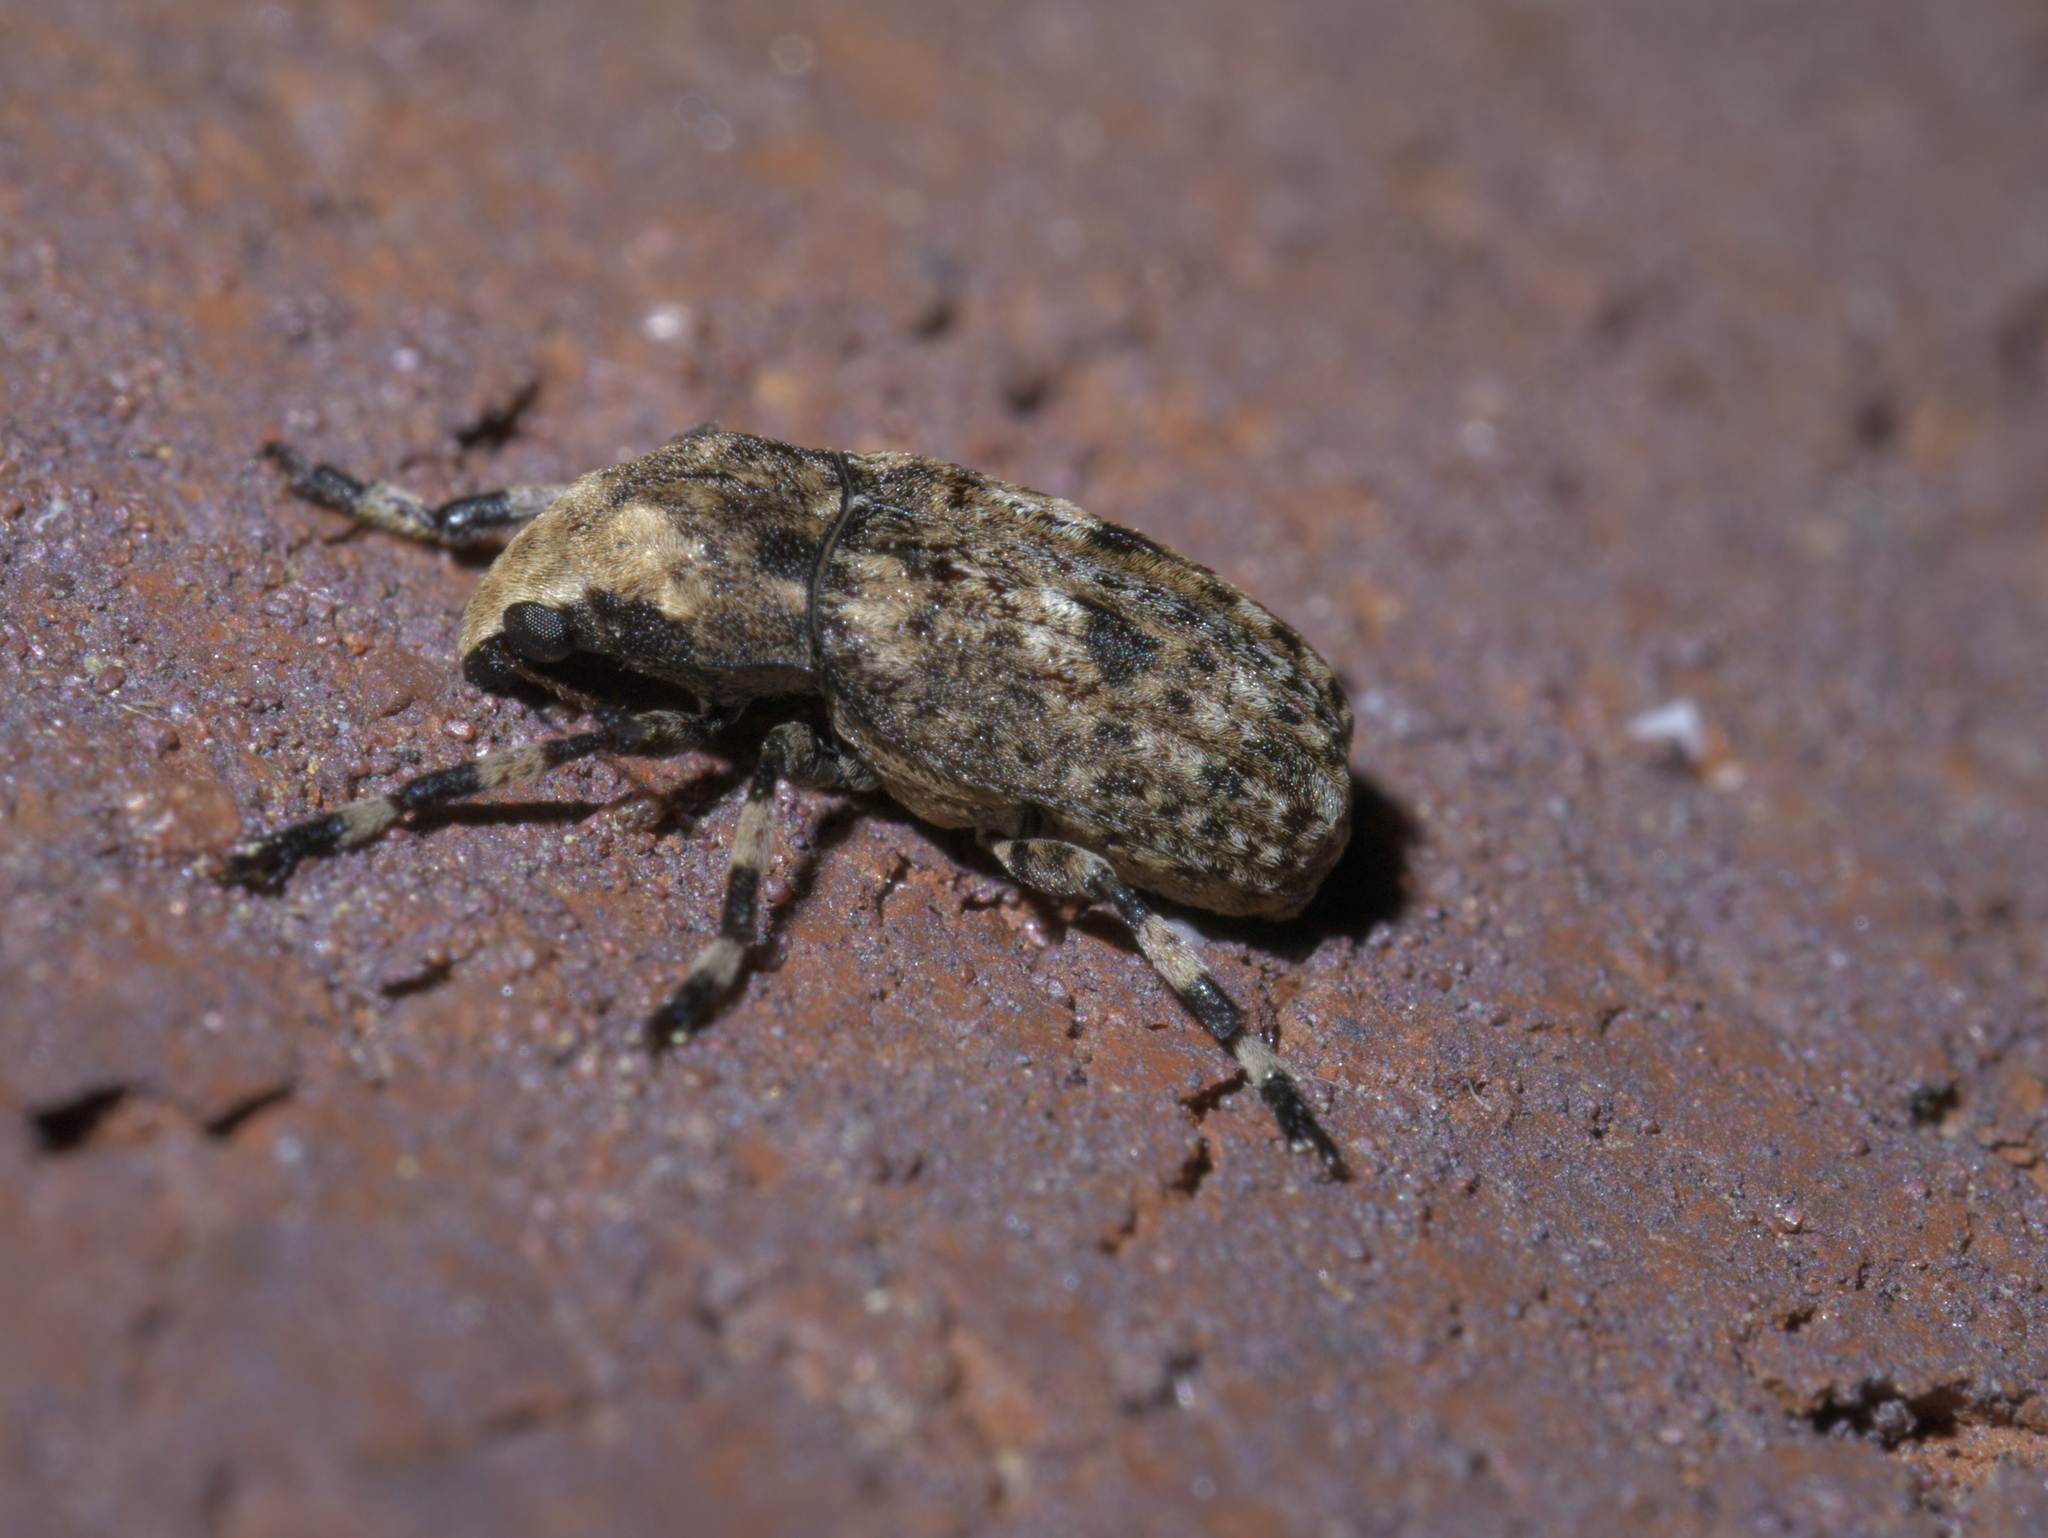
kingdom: Animalia
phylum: Arthropoda
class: Insecta
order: Coleoptera
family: Anthribidae
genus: Euparius
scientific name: Euparius marmoreus
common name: Marbled fungus weevil
